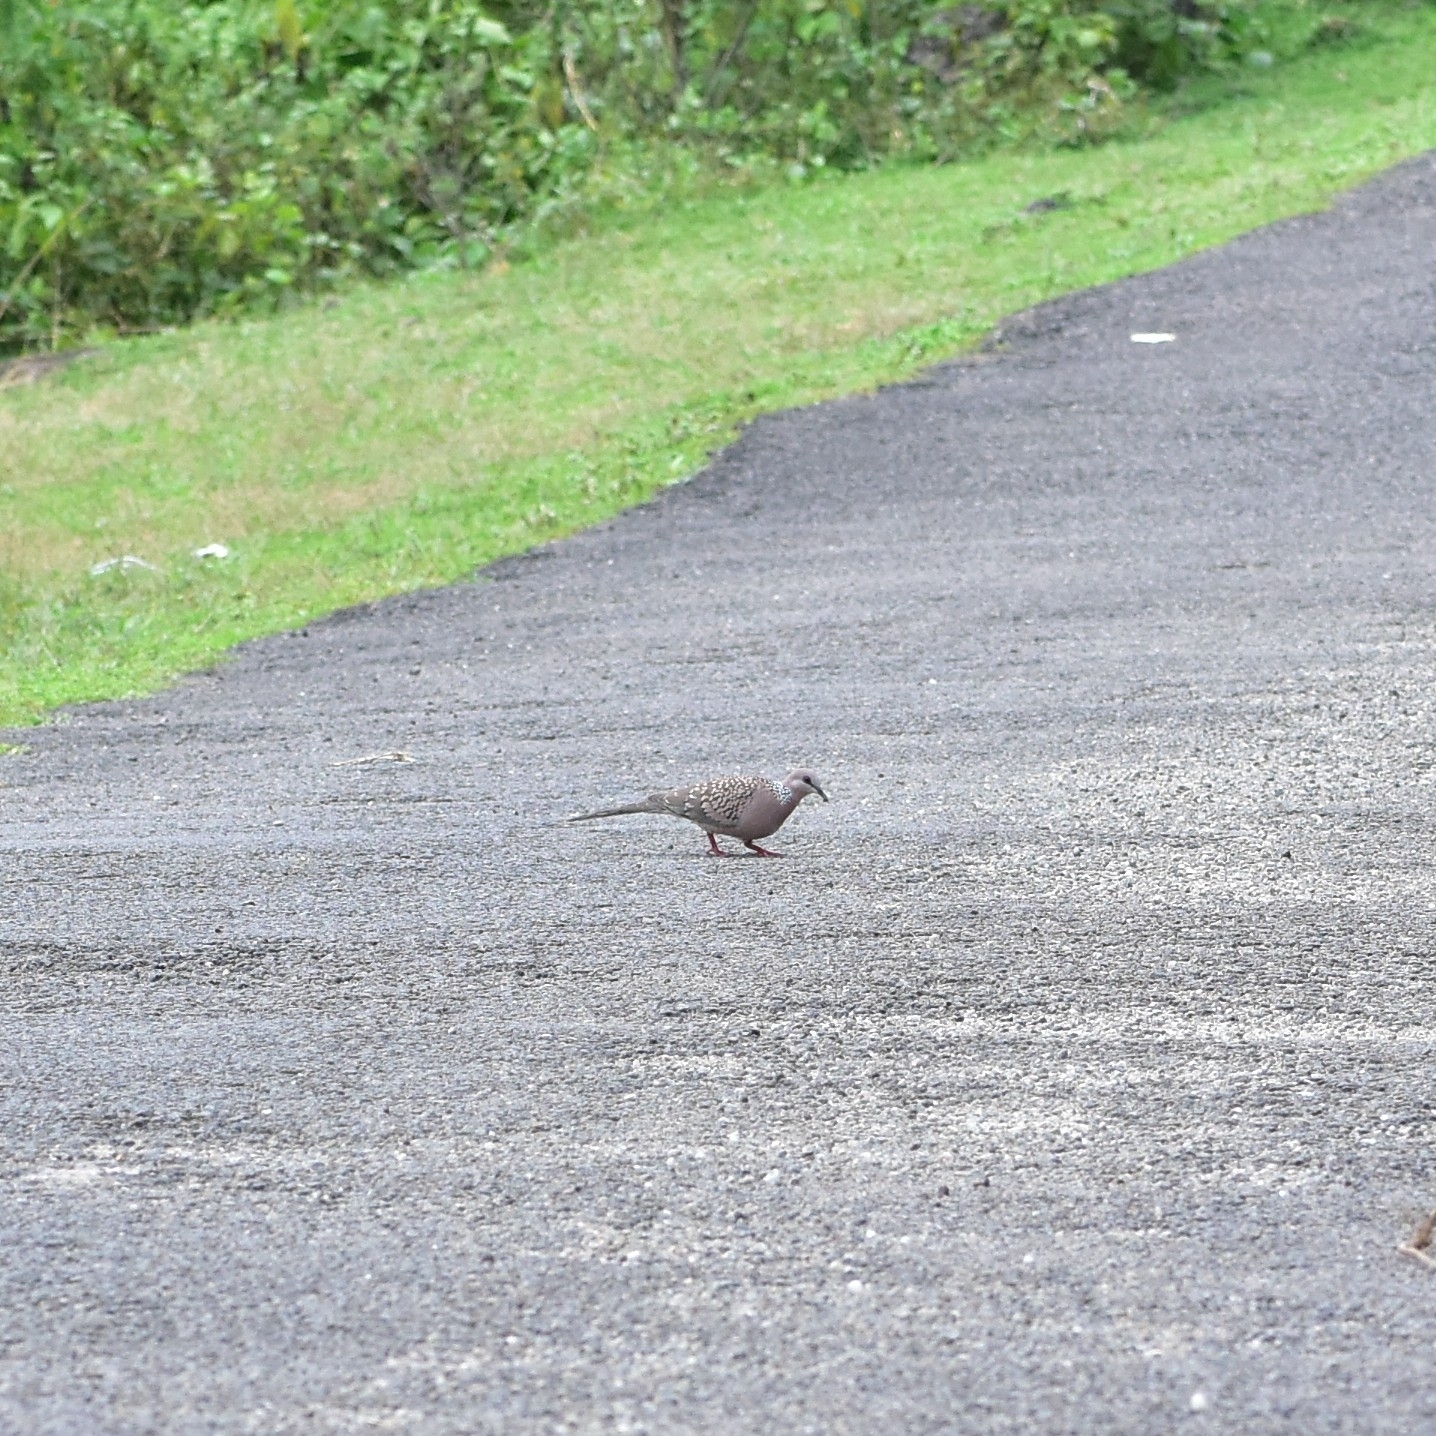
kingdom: Animalia
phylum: Chordata
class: Aves
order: Columbiformes
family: Columbidae
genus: Spilopelia
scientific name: Spilopelia chinensis
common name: Spotted dove
